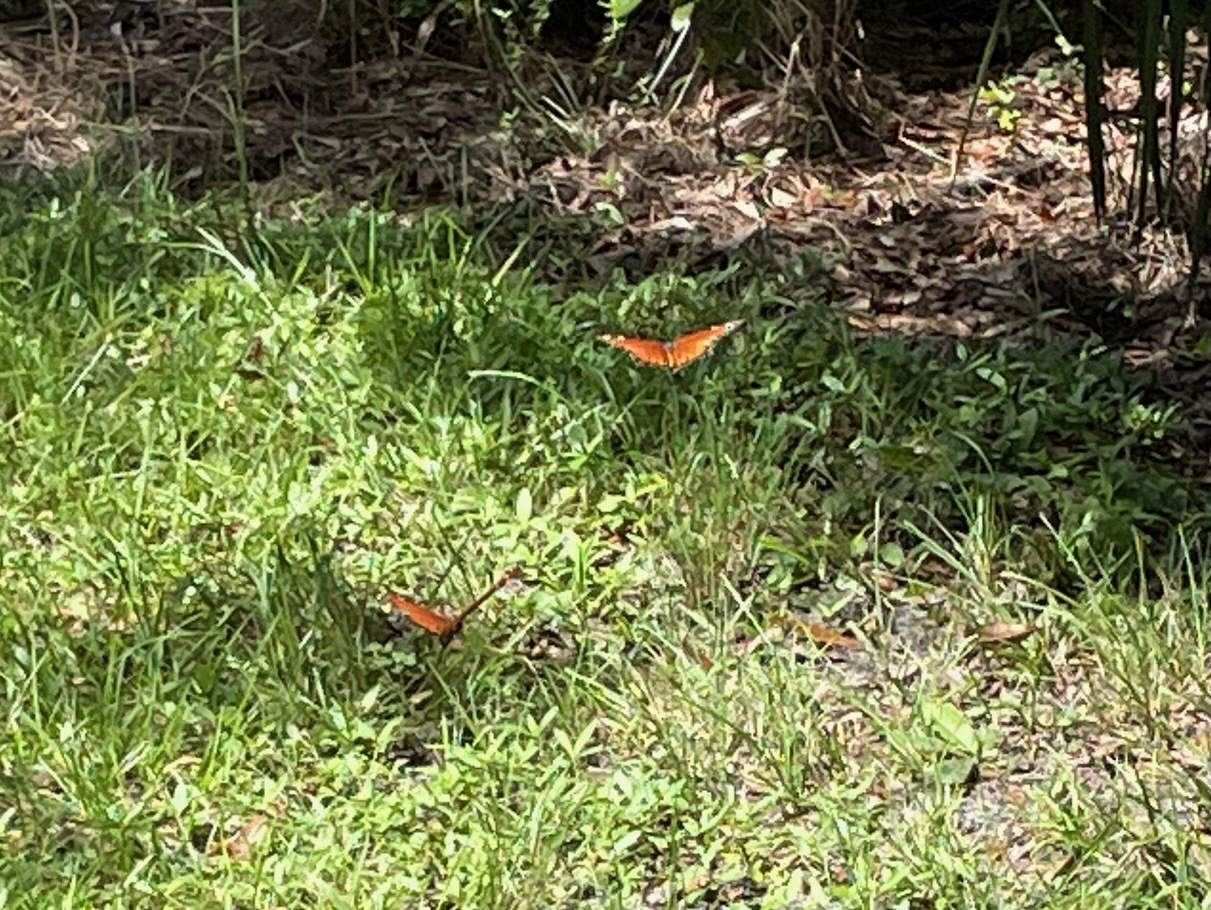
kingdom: Animalia
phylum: Arthropoda
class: Insecta
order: Lepidoptera
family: Nymphalidae
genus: Danaus
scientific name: Danaus gilippus
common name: Queen
